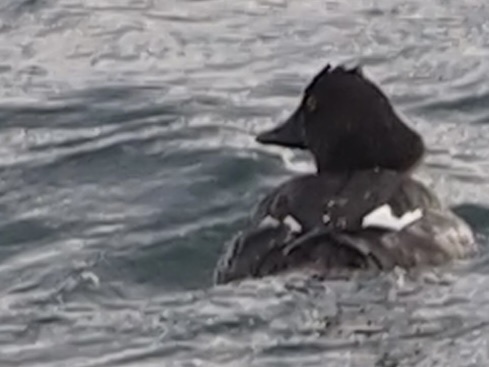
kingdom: Animalia
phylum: Chordata
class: Aves
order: Anseriformes
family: Anatidae
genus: Bucephala
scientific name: Bucephala clangula
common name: Common goldeneye
